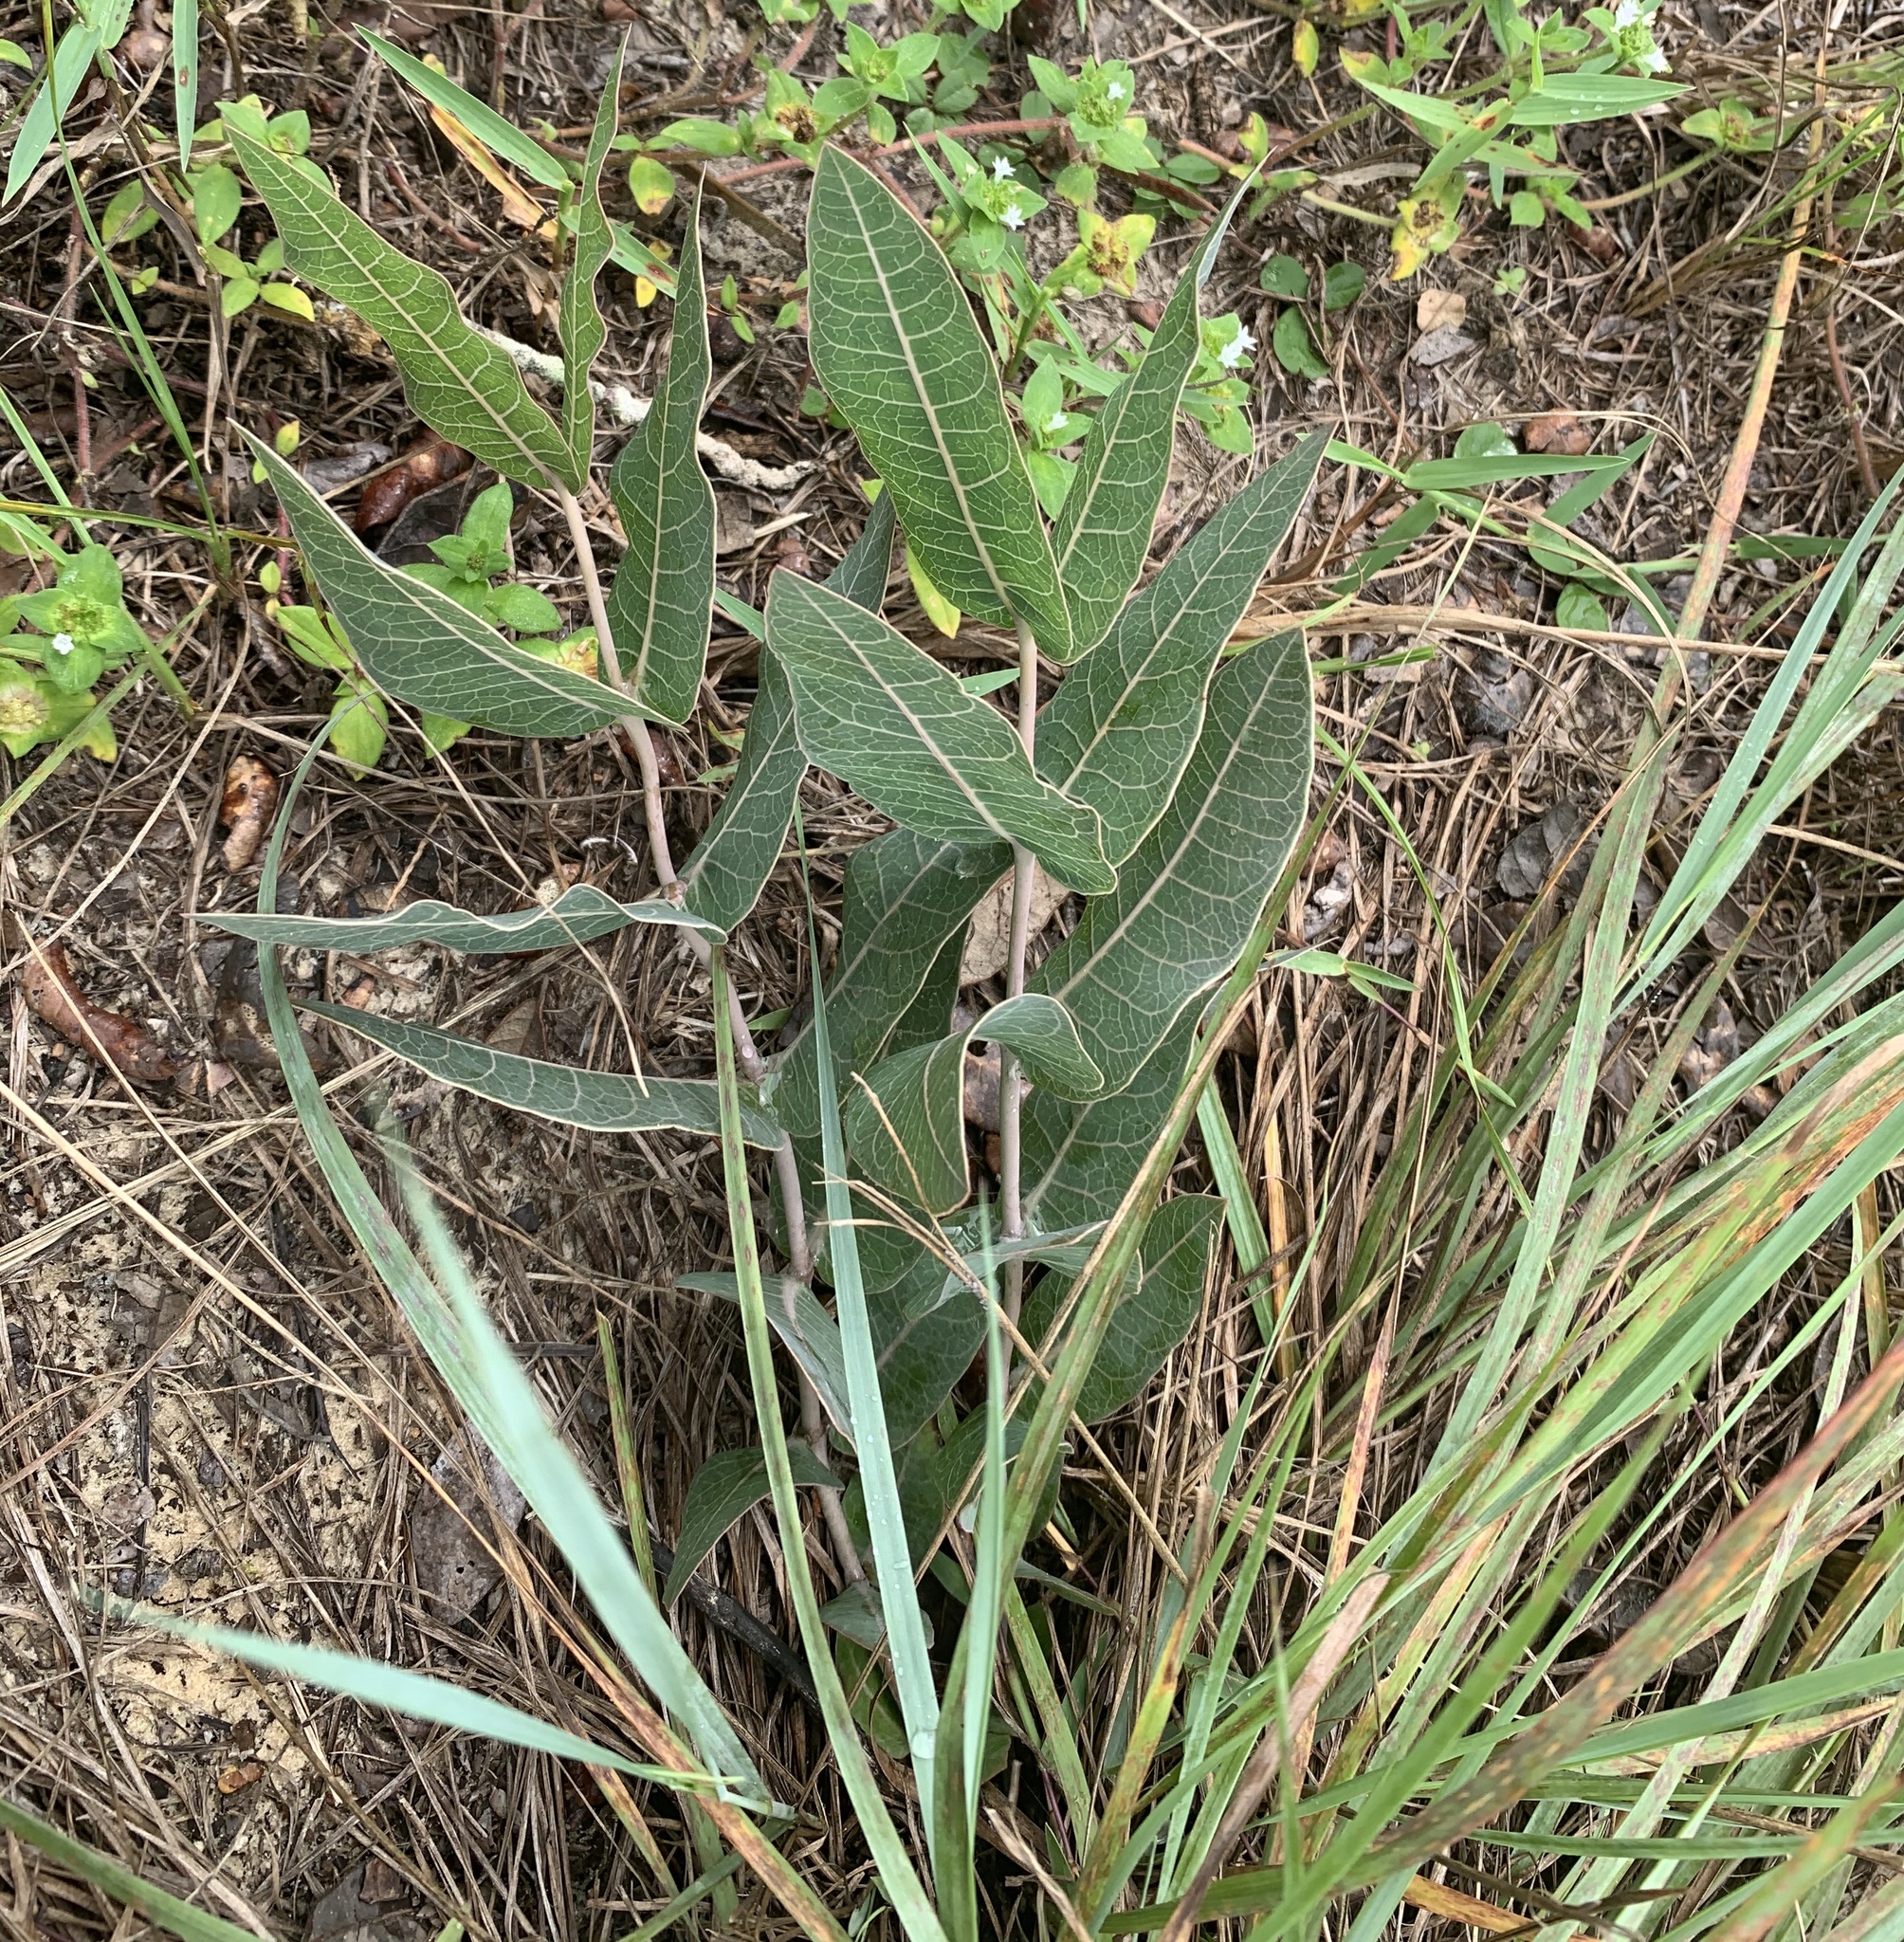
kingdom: Plantae
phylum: Tracheophyta
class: Magnoliopsida
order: Gentianales
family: Apocynaceae
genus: Asclepias
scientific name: Asclepias humistrata
